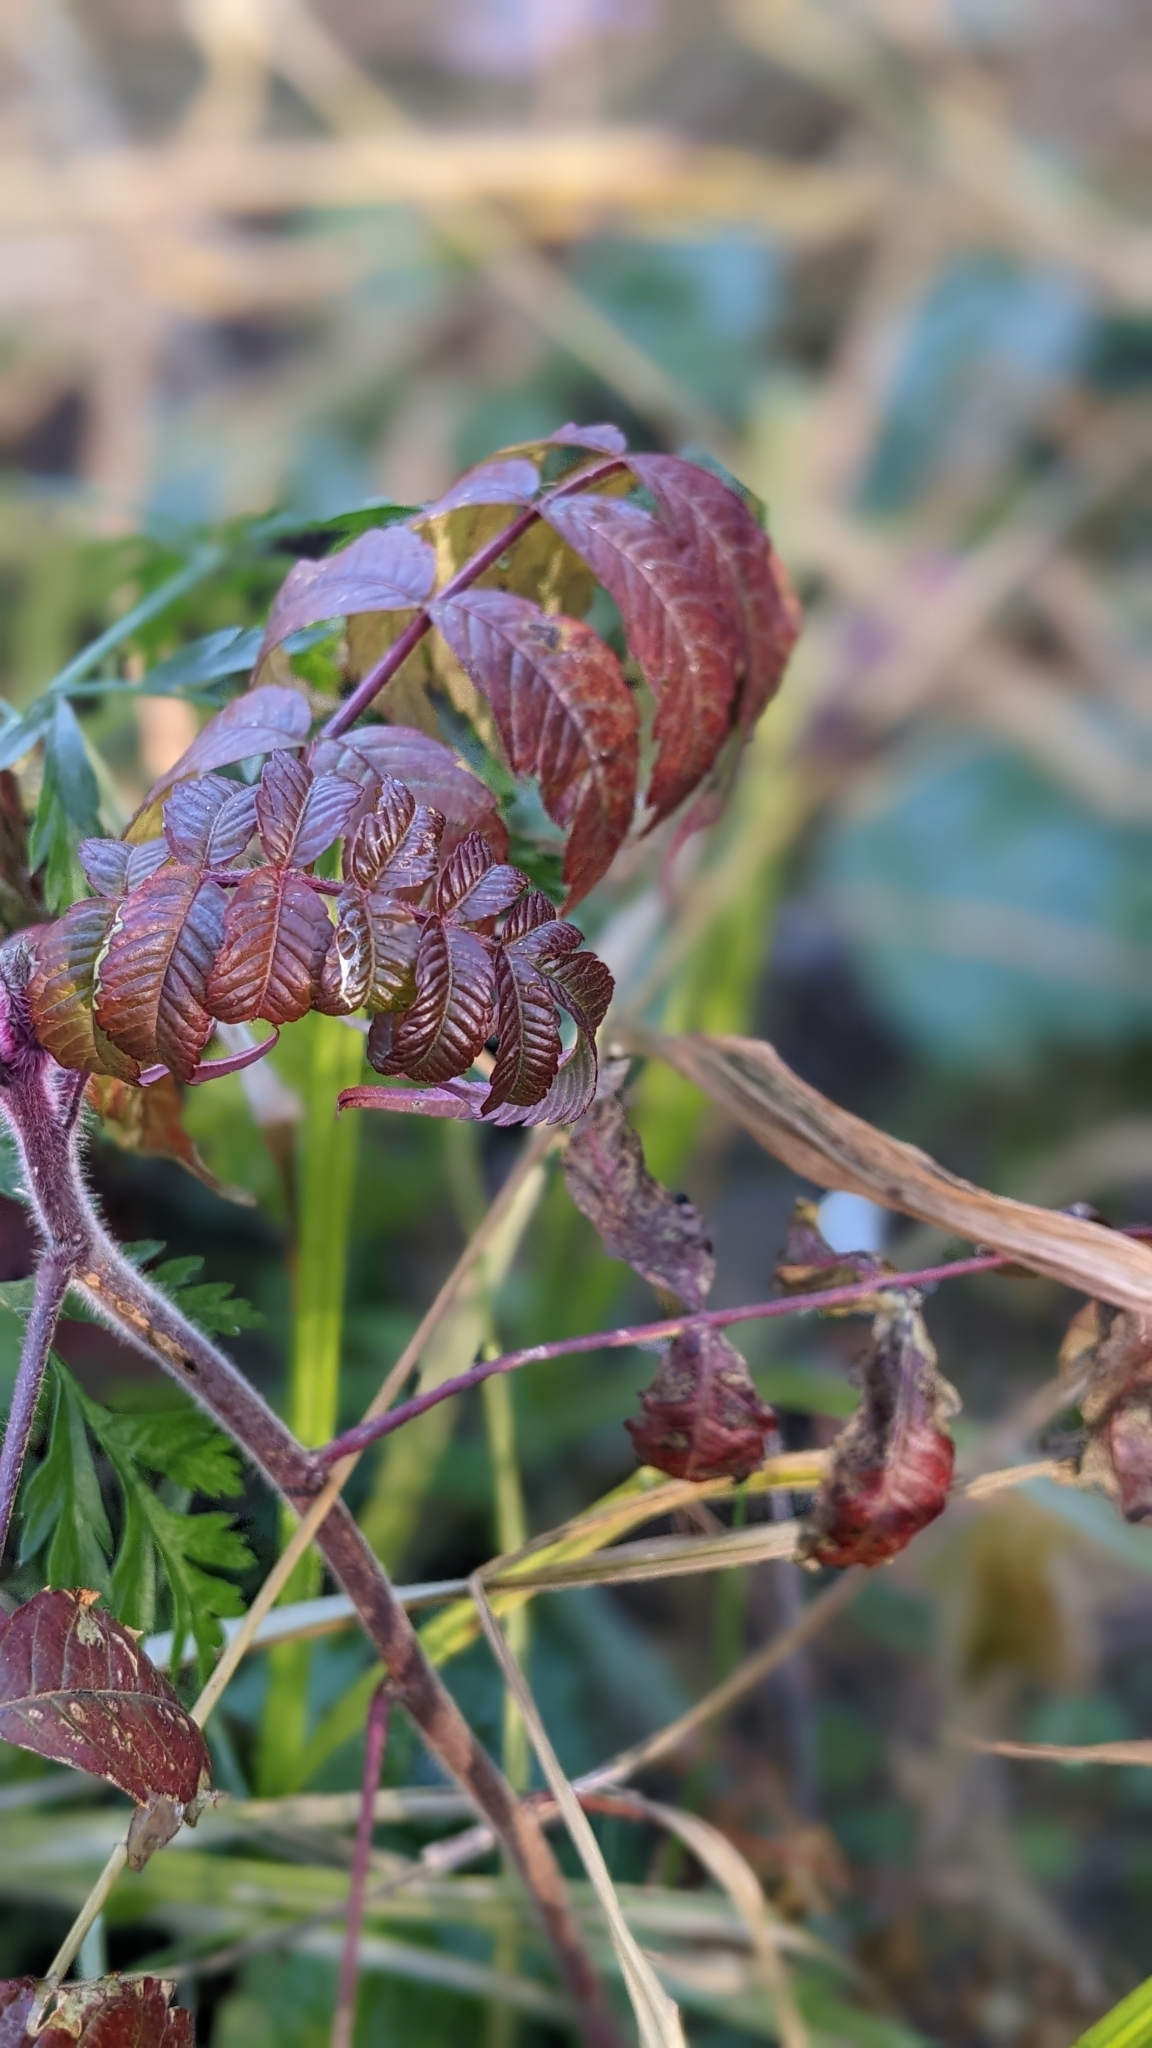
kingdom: Plantae
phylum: Tracheophyta
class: Magnoliopsida
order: Sapindales
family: Anacardiaceae
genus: Rhus
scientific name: Rhus typhina
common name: Staghorn sumac
